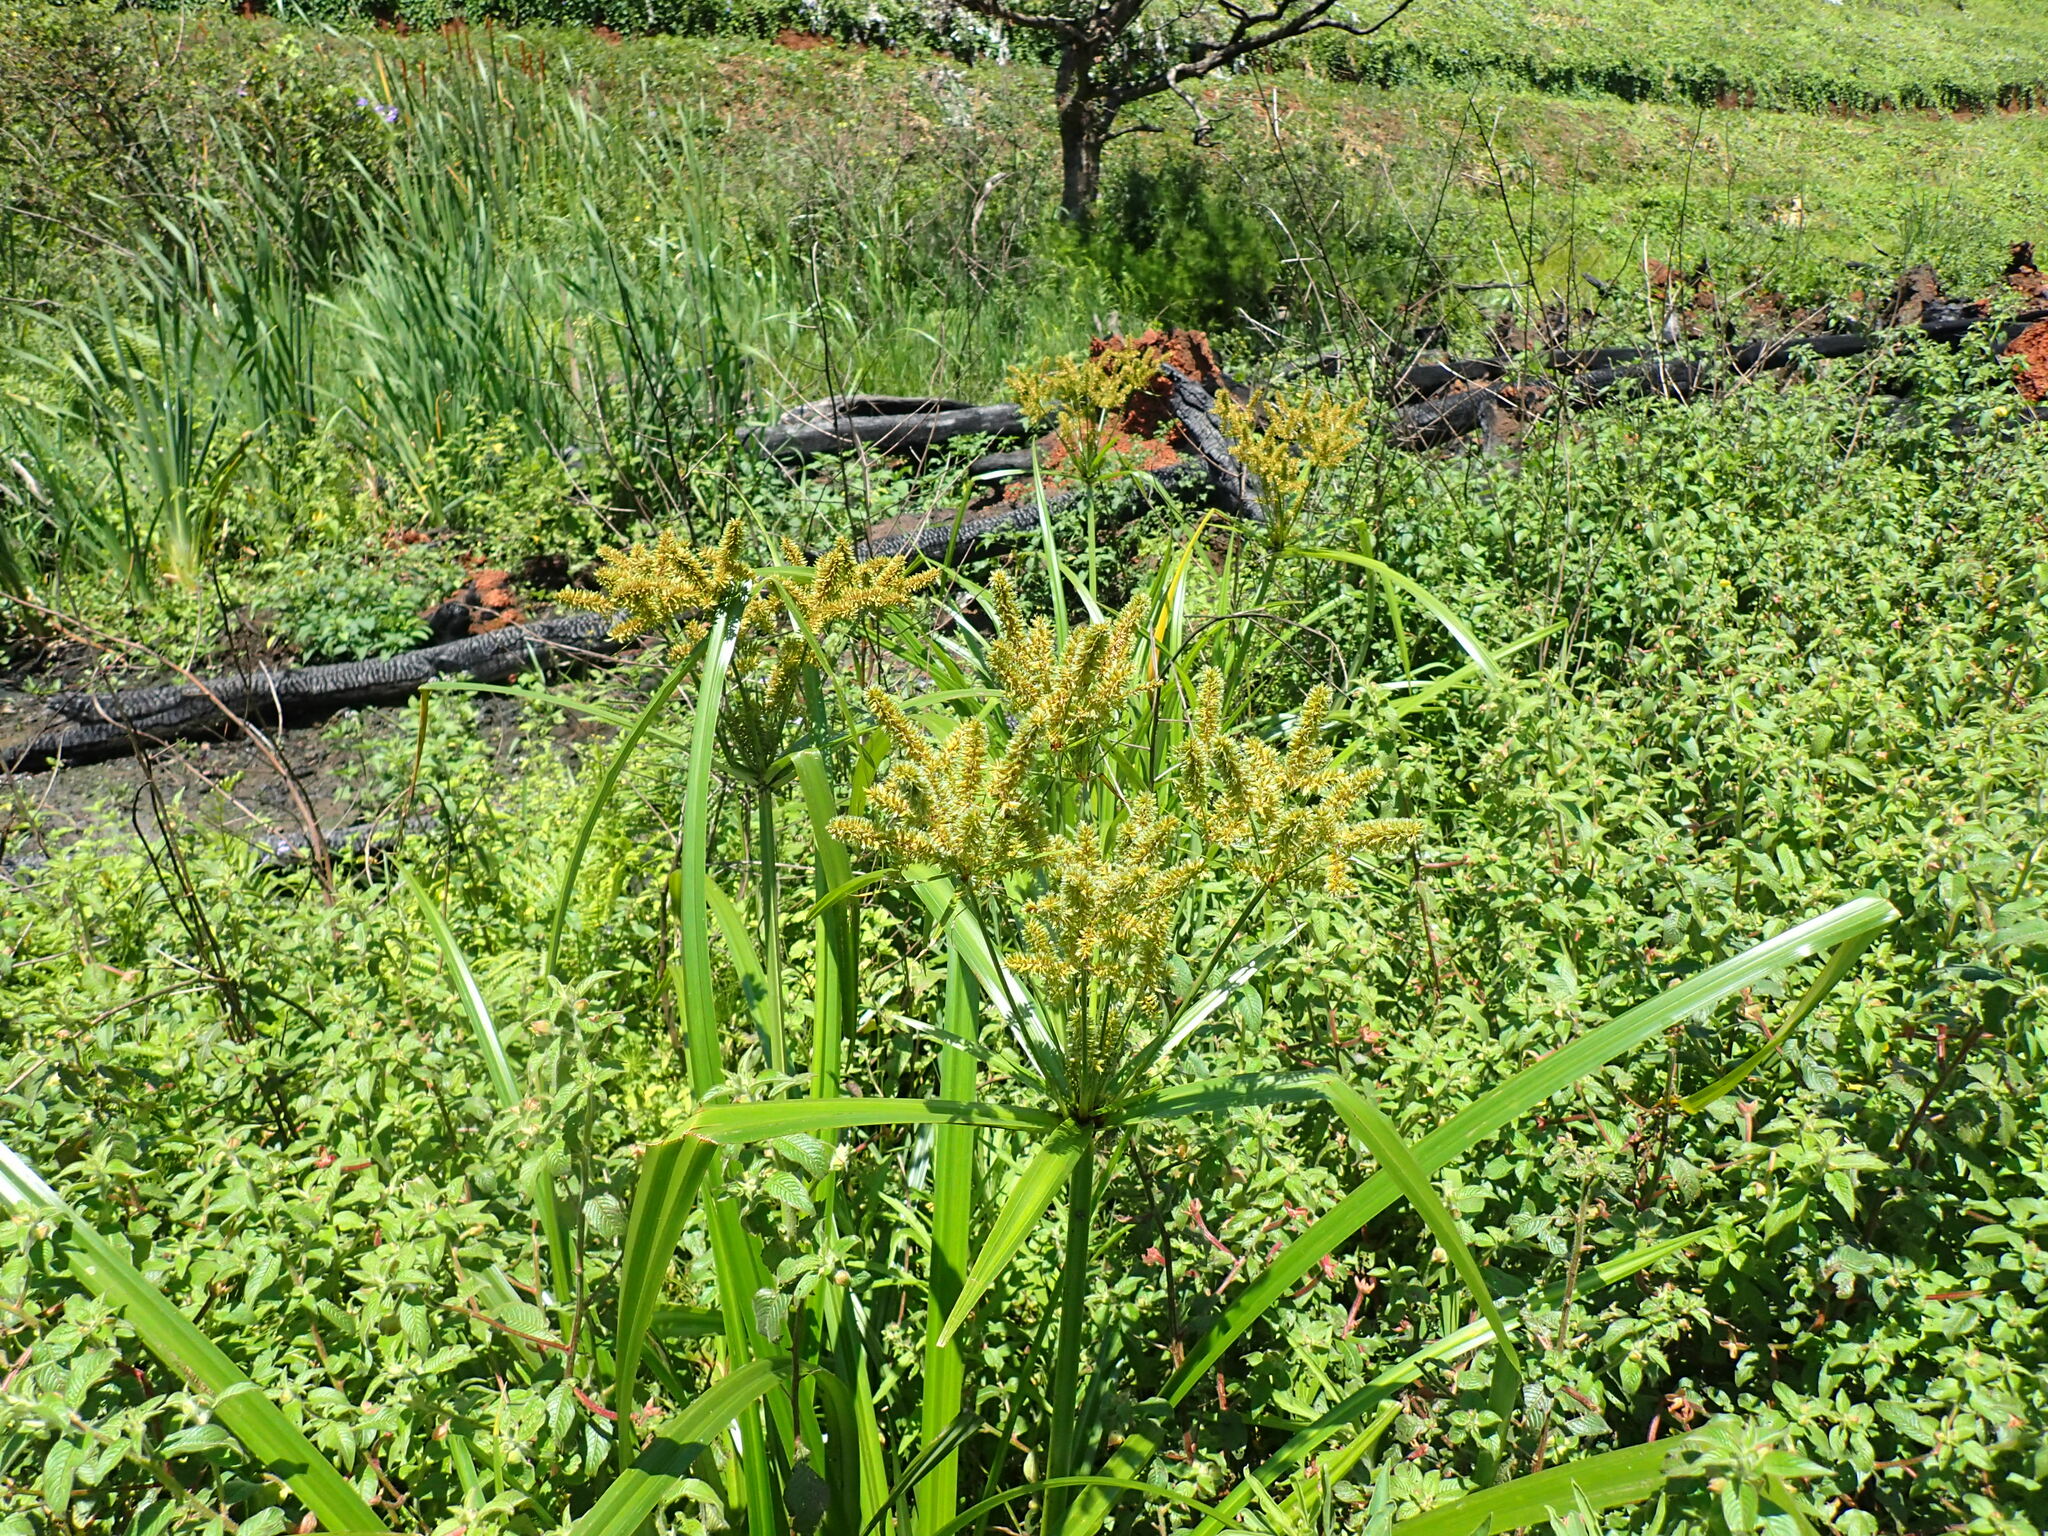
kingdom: Plantae
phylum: Tracheophyta
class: Liliopsida
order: Poales
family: Cyperaceae
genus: Cyperus
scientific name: Cyperus dives
